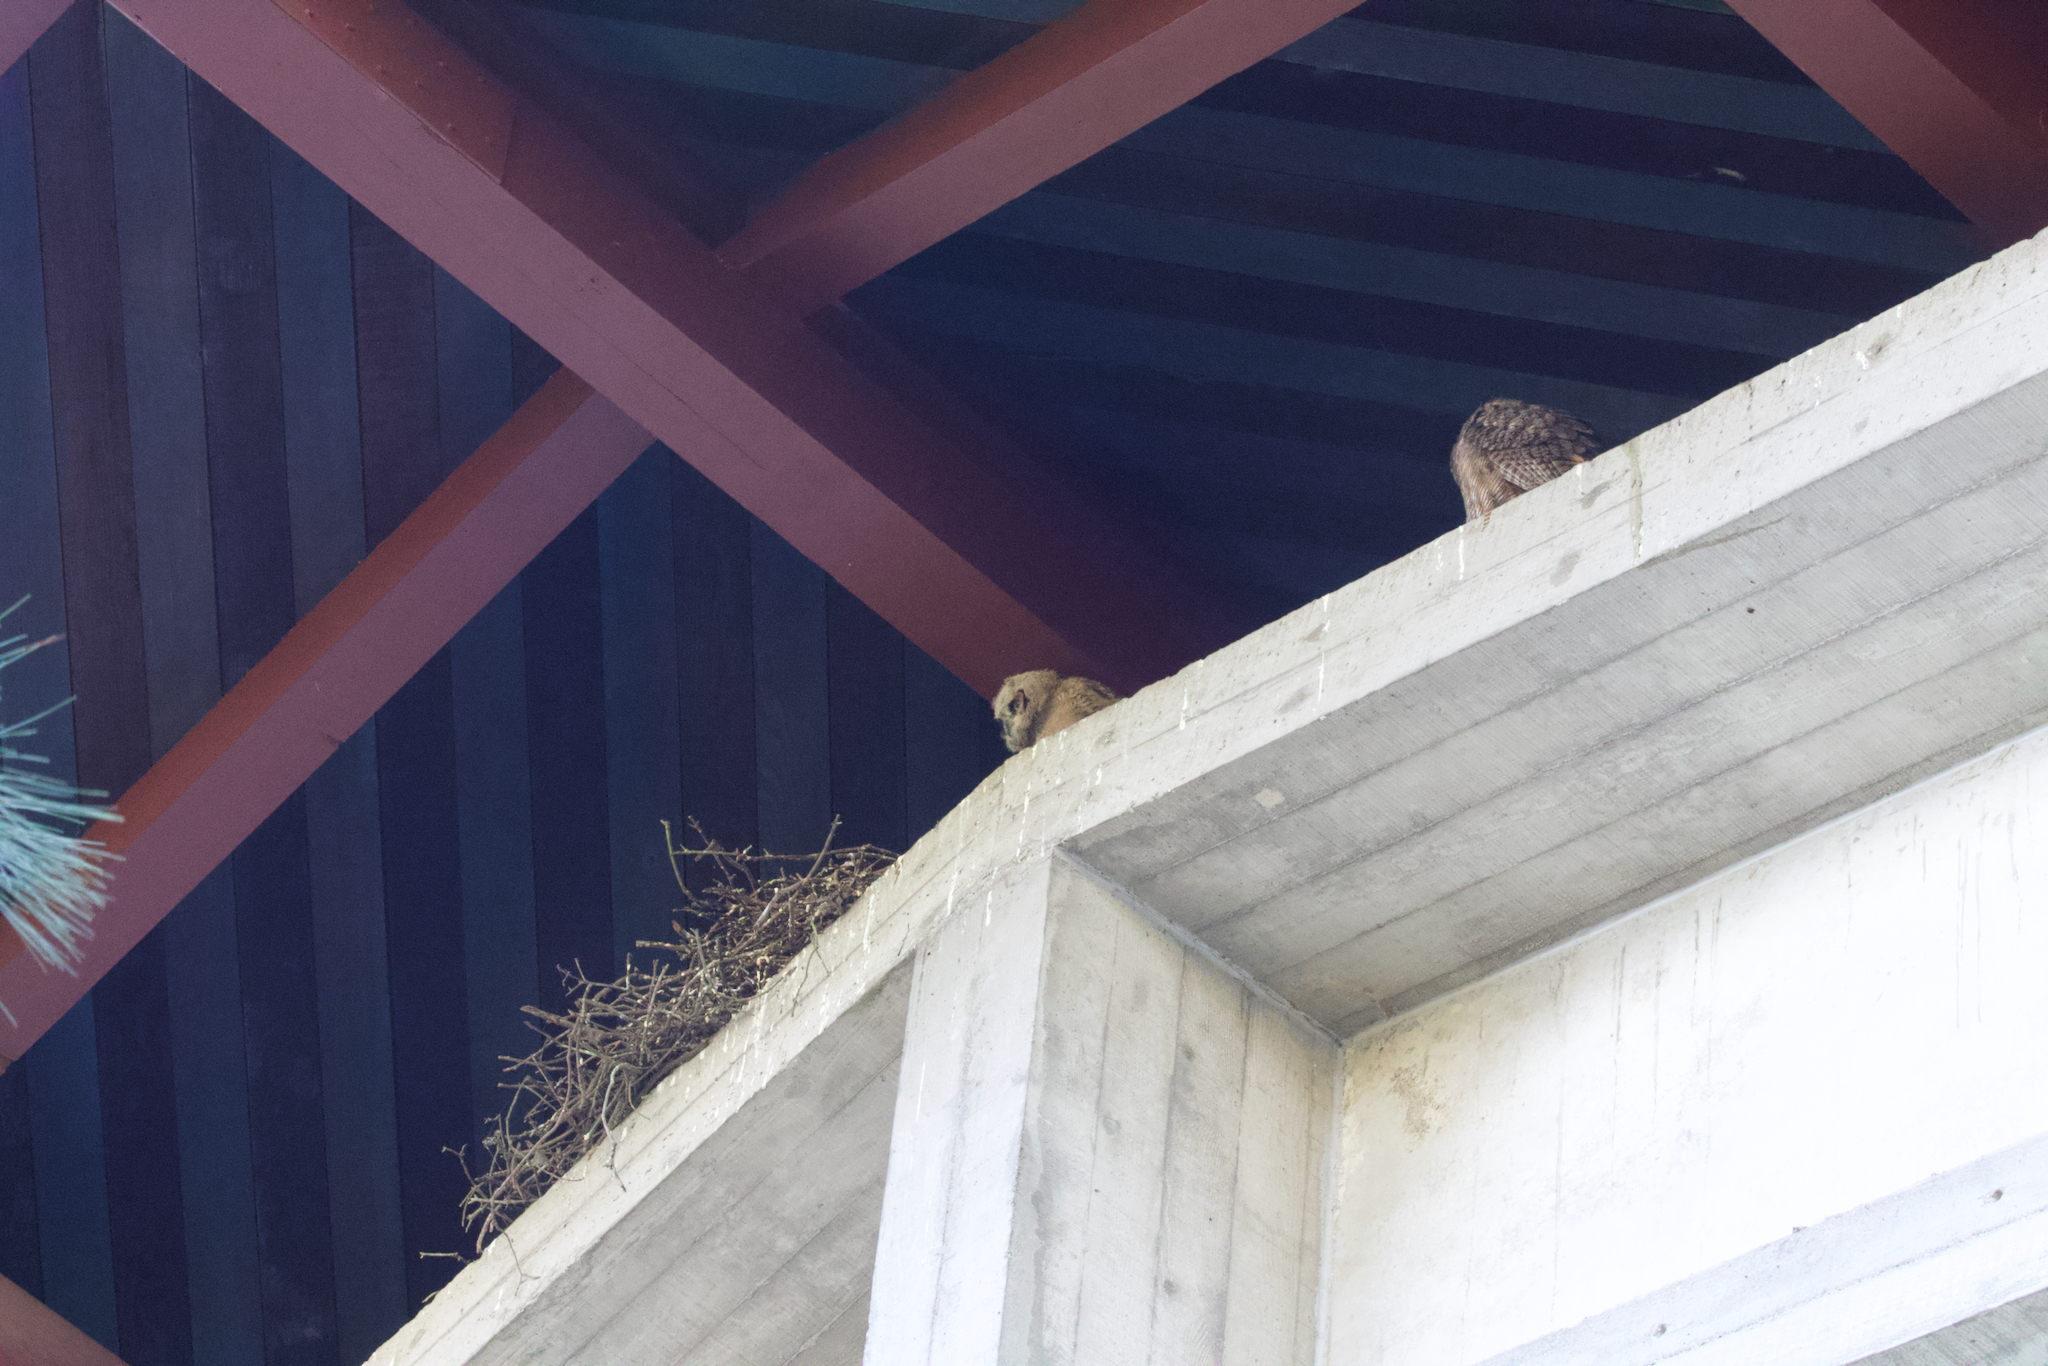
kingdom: Animalia
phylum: Chordata
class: Aves
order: Strigiformes
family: Strigidae
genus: Bubo
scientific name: Bubo virginianus
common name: Great horned owl
